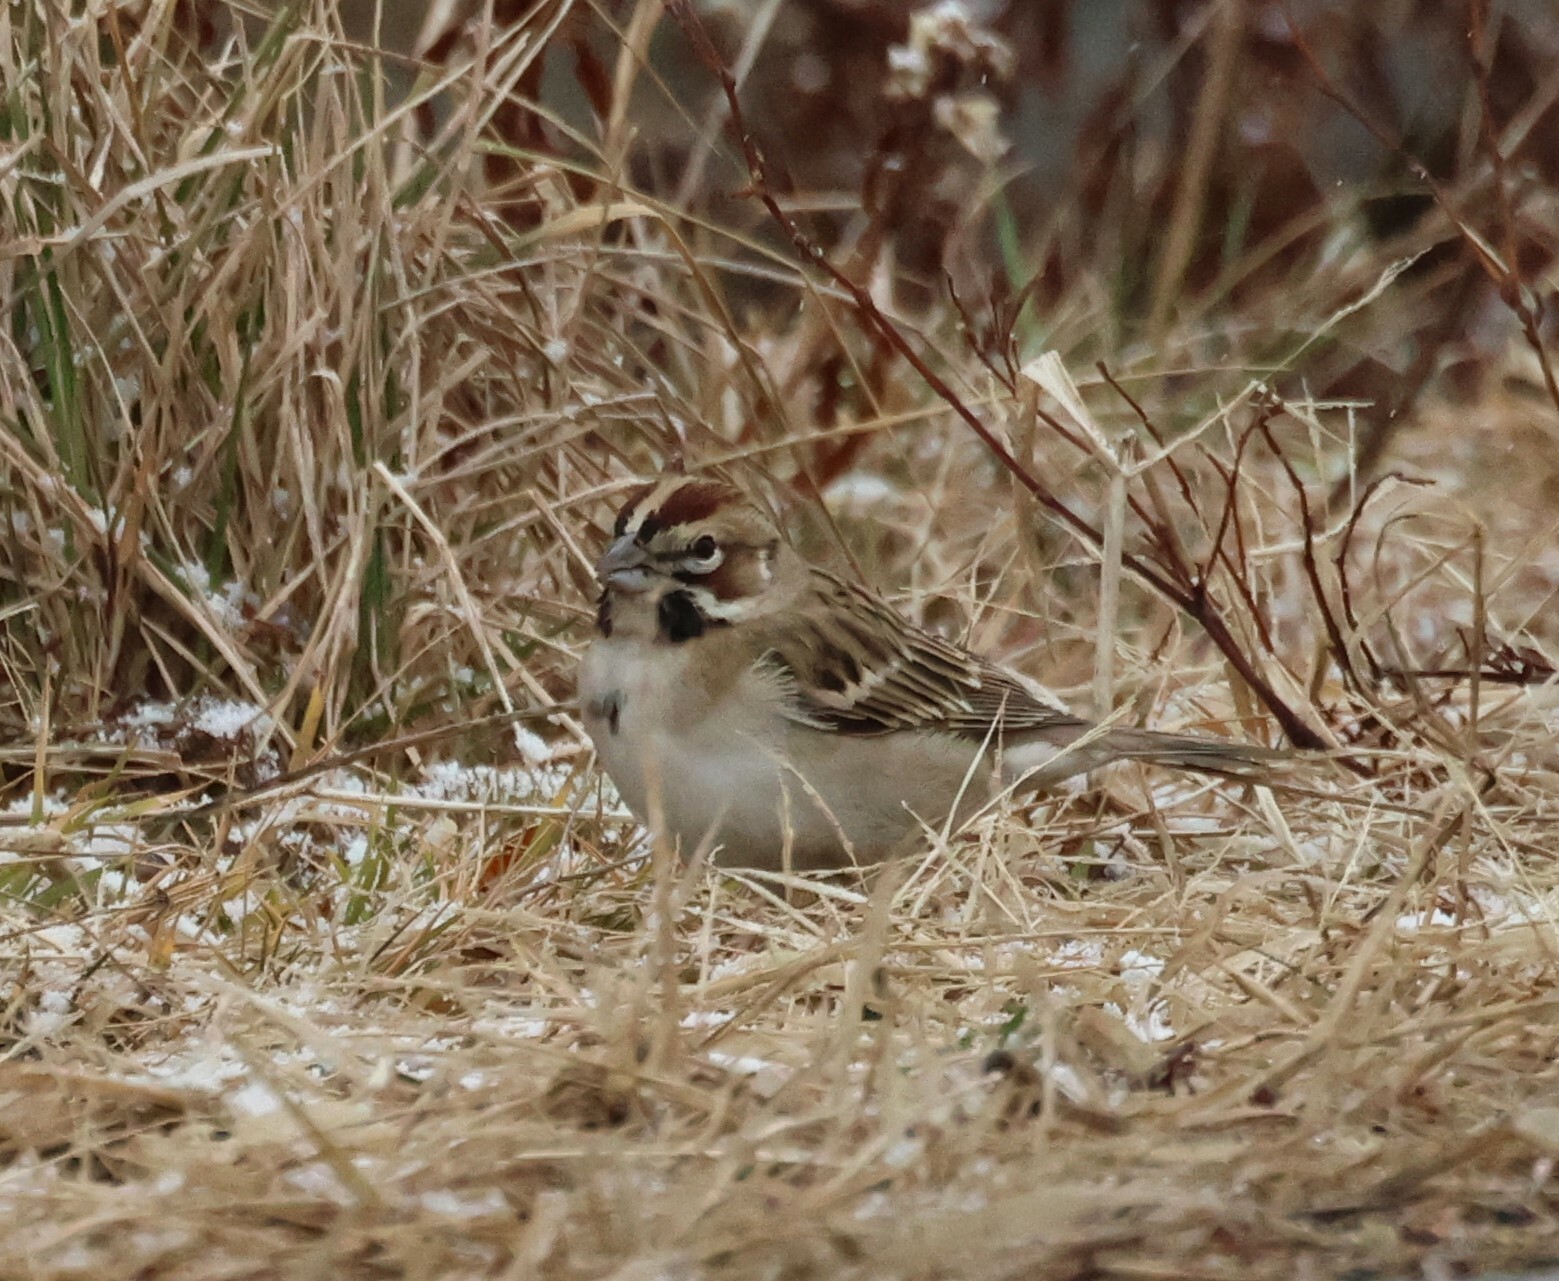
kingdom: Animalia
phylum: Chordata
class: Aves
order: Passeriformes
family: Passerellidae
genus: Chondestes
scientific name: Chondestes grammacus
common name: Lark sparrow
